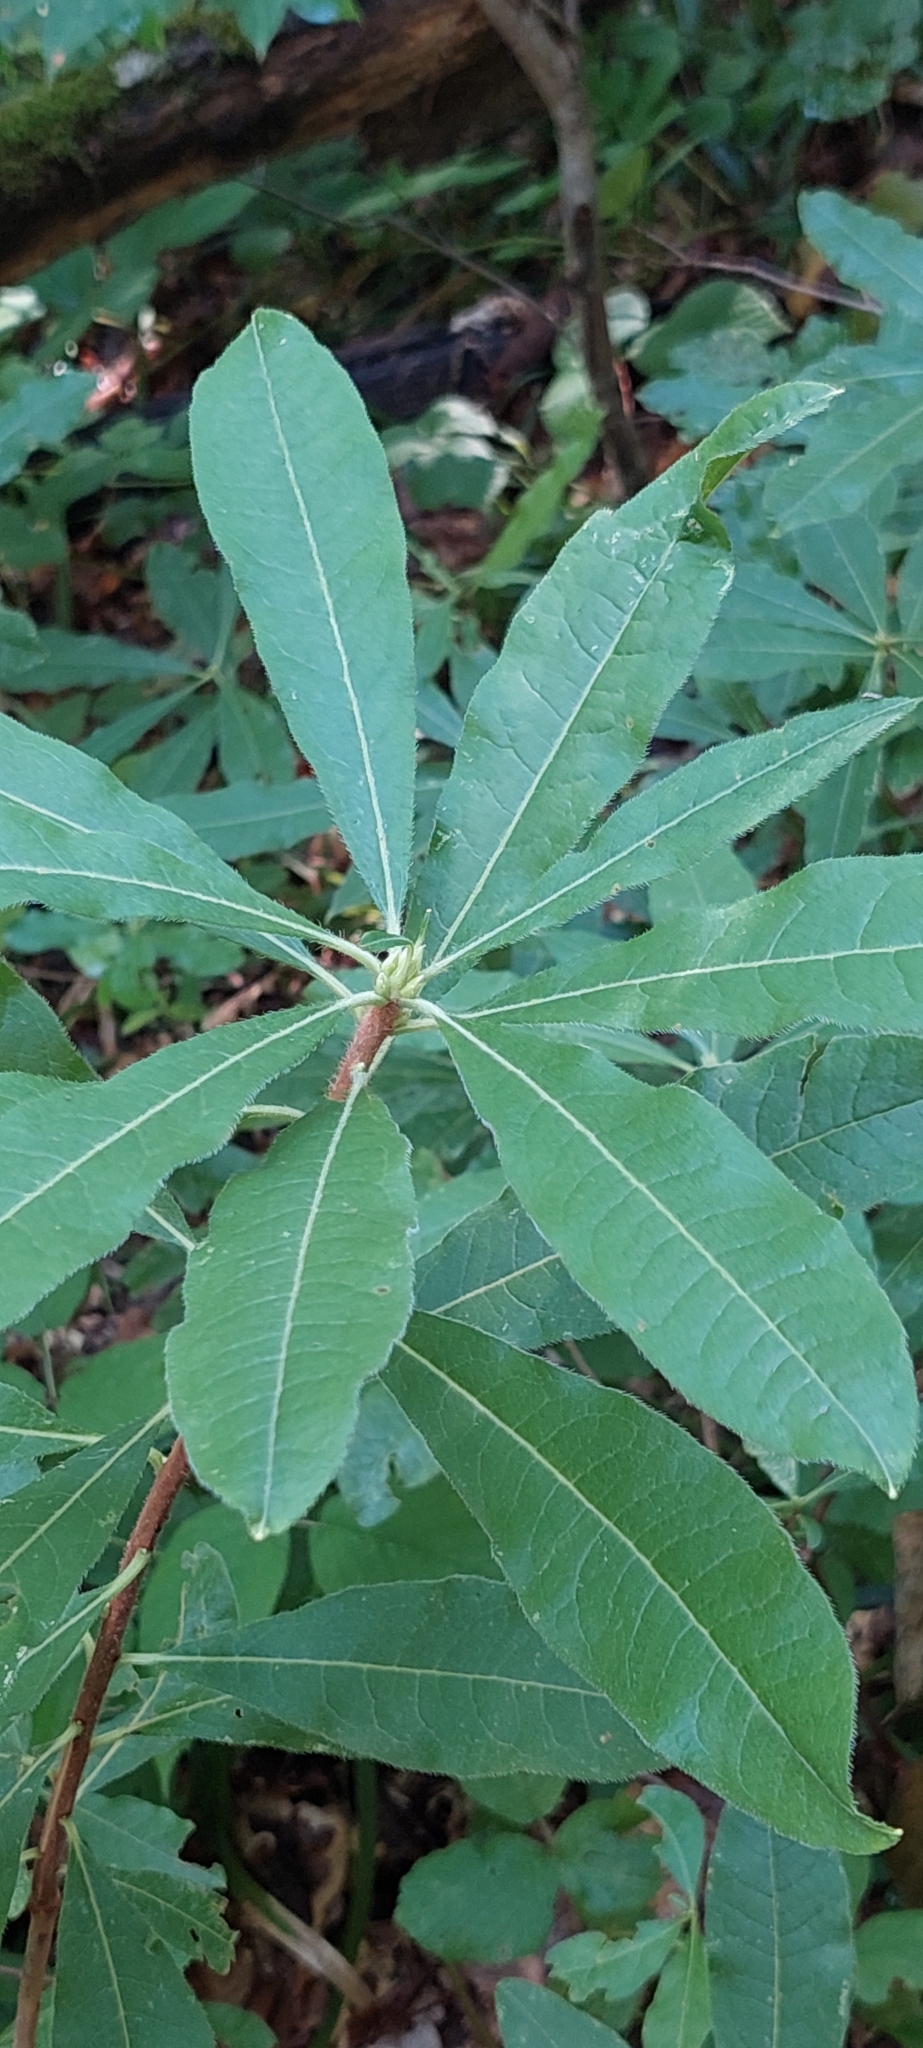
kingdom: Plantae
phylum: Tracheophyta
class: Magnoliopsida
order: Ericales
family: Ericaceae
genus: Rhododendron
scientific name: Rhododendron luteum
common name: Yellow azalea
